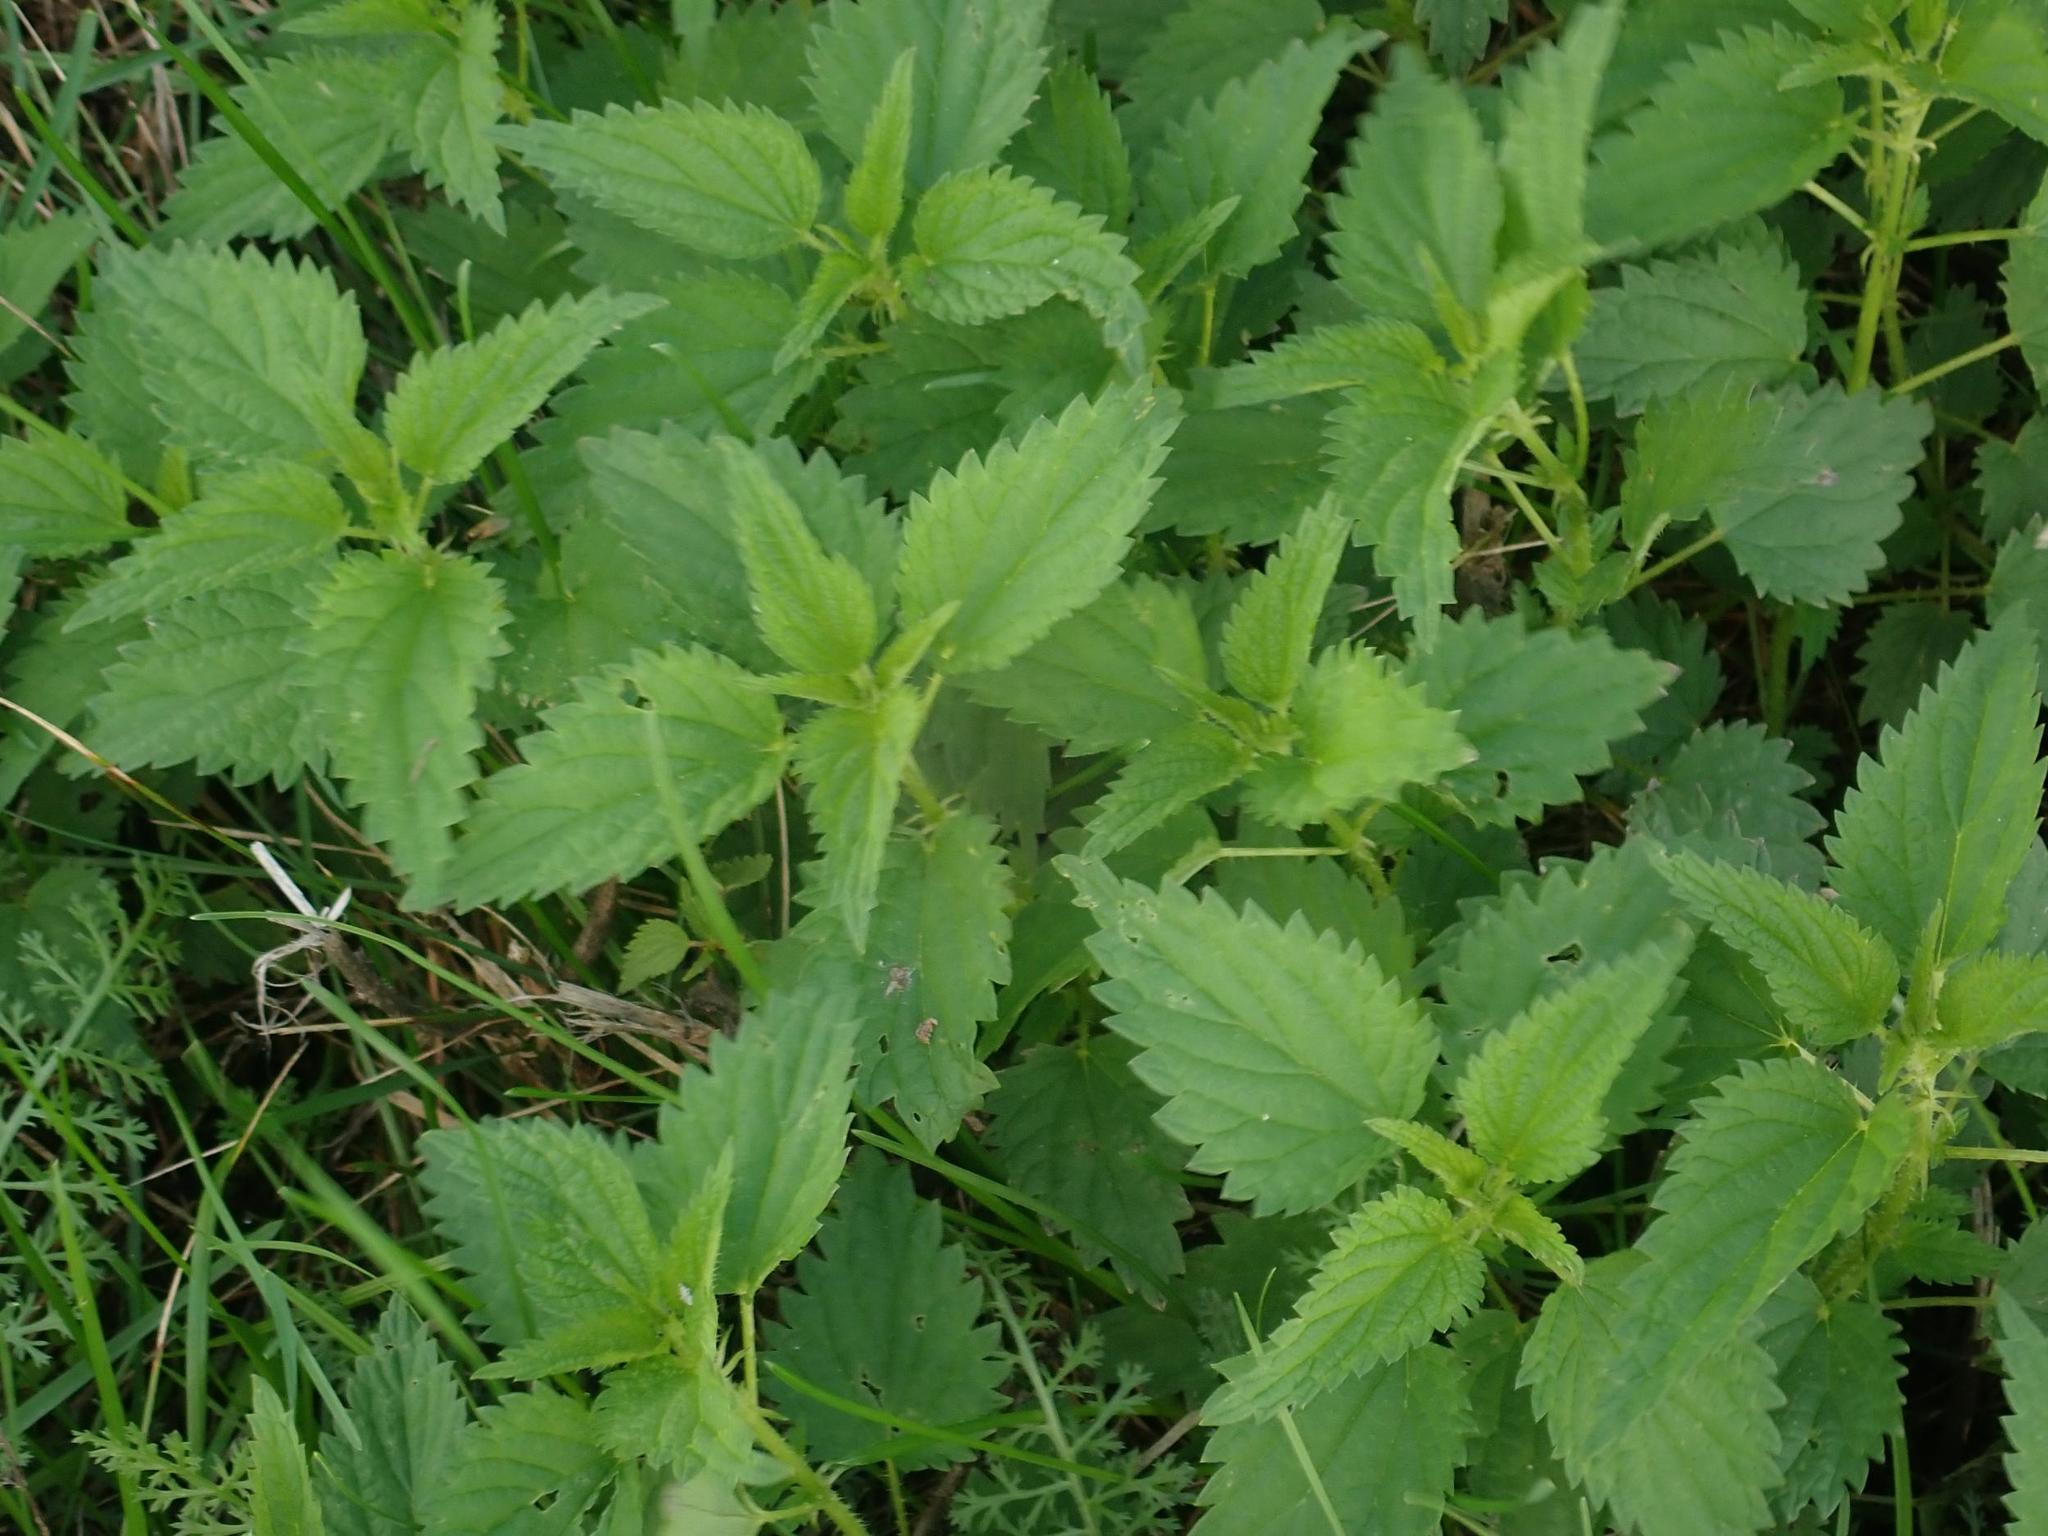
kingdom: Plantae
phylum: Tracheophyta
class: Magnoliopsida
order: Rosales
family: Urticaceae
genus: Urtica
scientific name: Urtica dioica
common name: Common nettle
